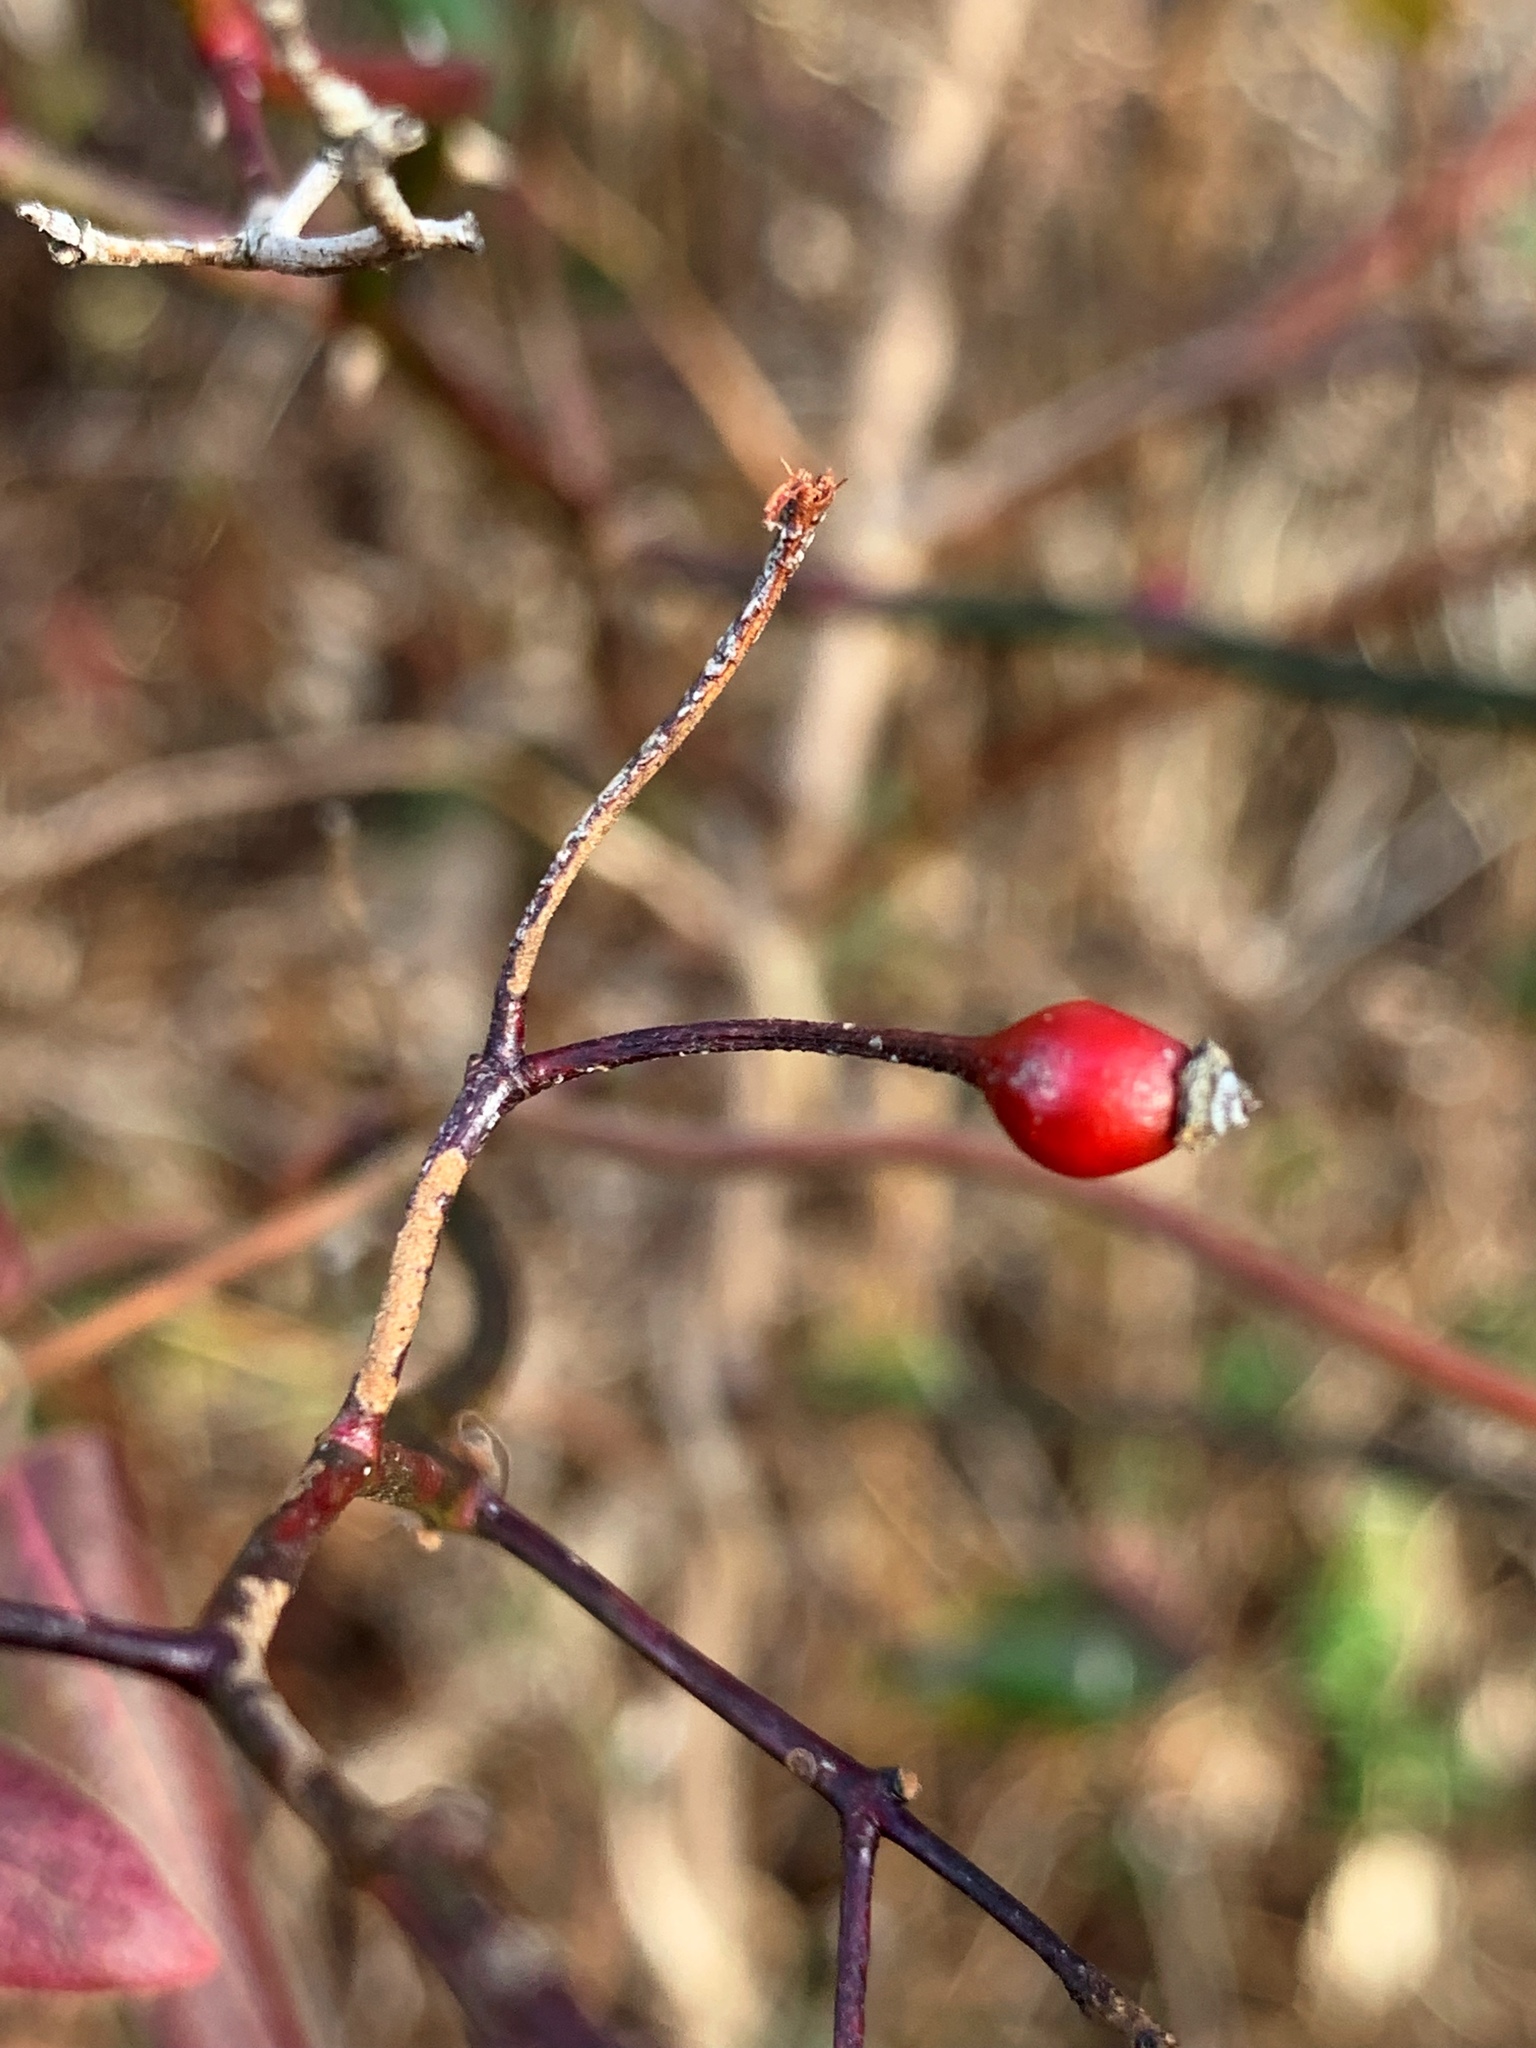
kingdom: Plantae
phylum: Tracheophyta
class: Magnoliopsida
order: Rosales
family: Rosaceae
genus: Rosa
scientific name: Rosa multiflora
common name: Multiflora rose
